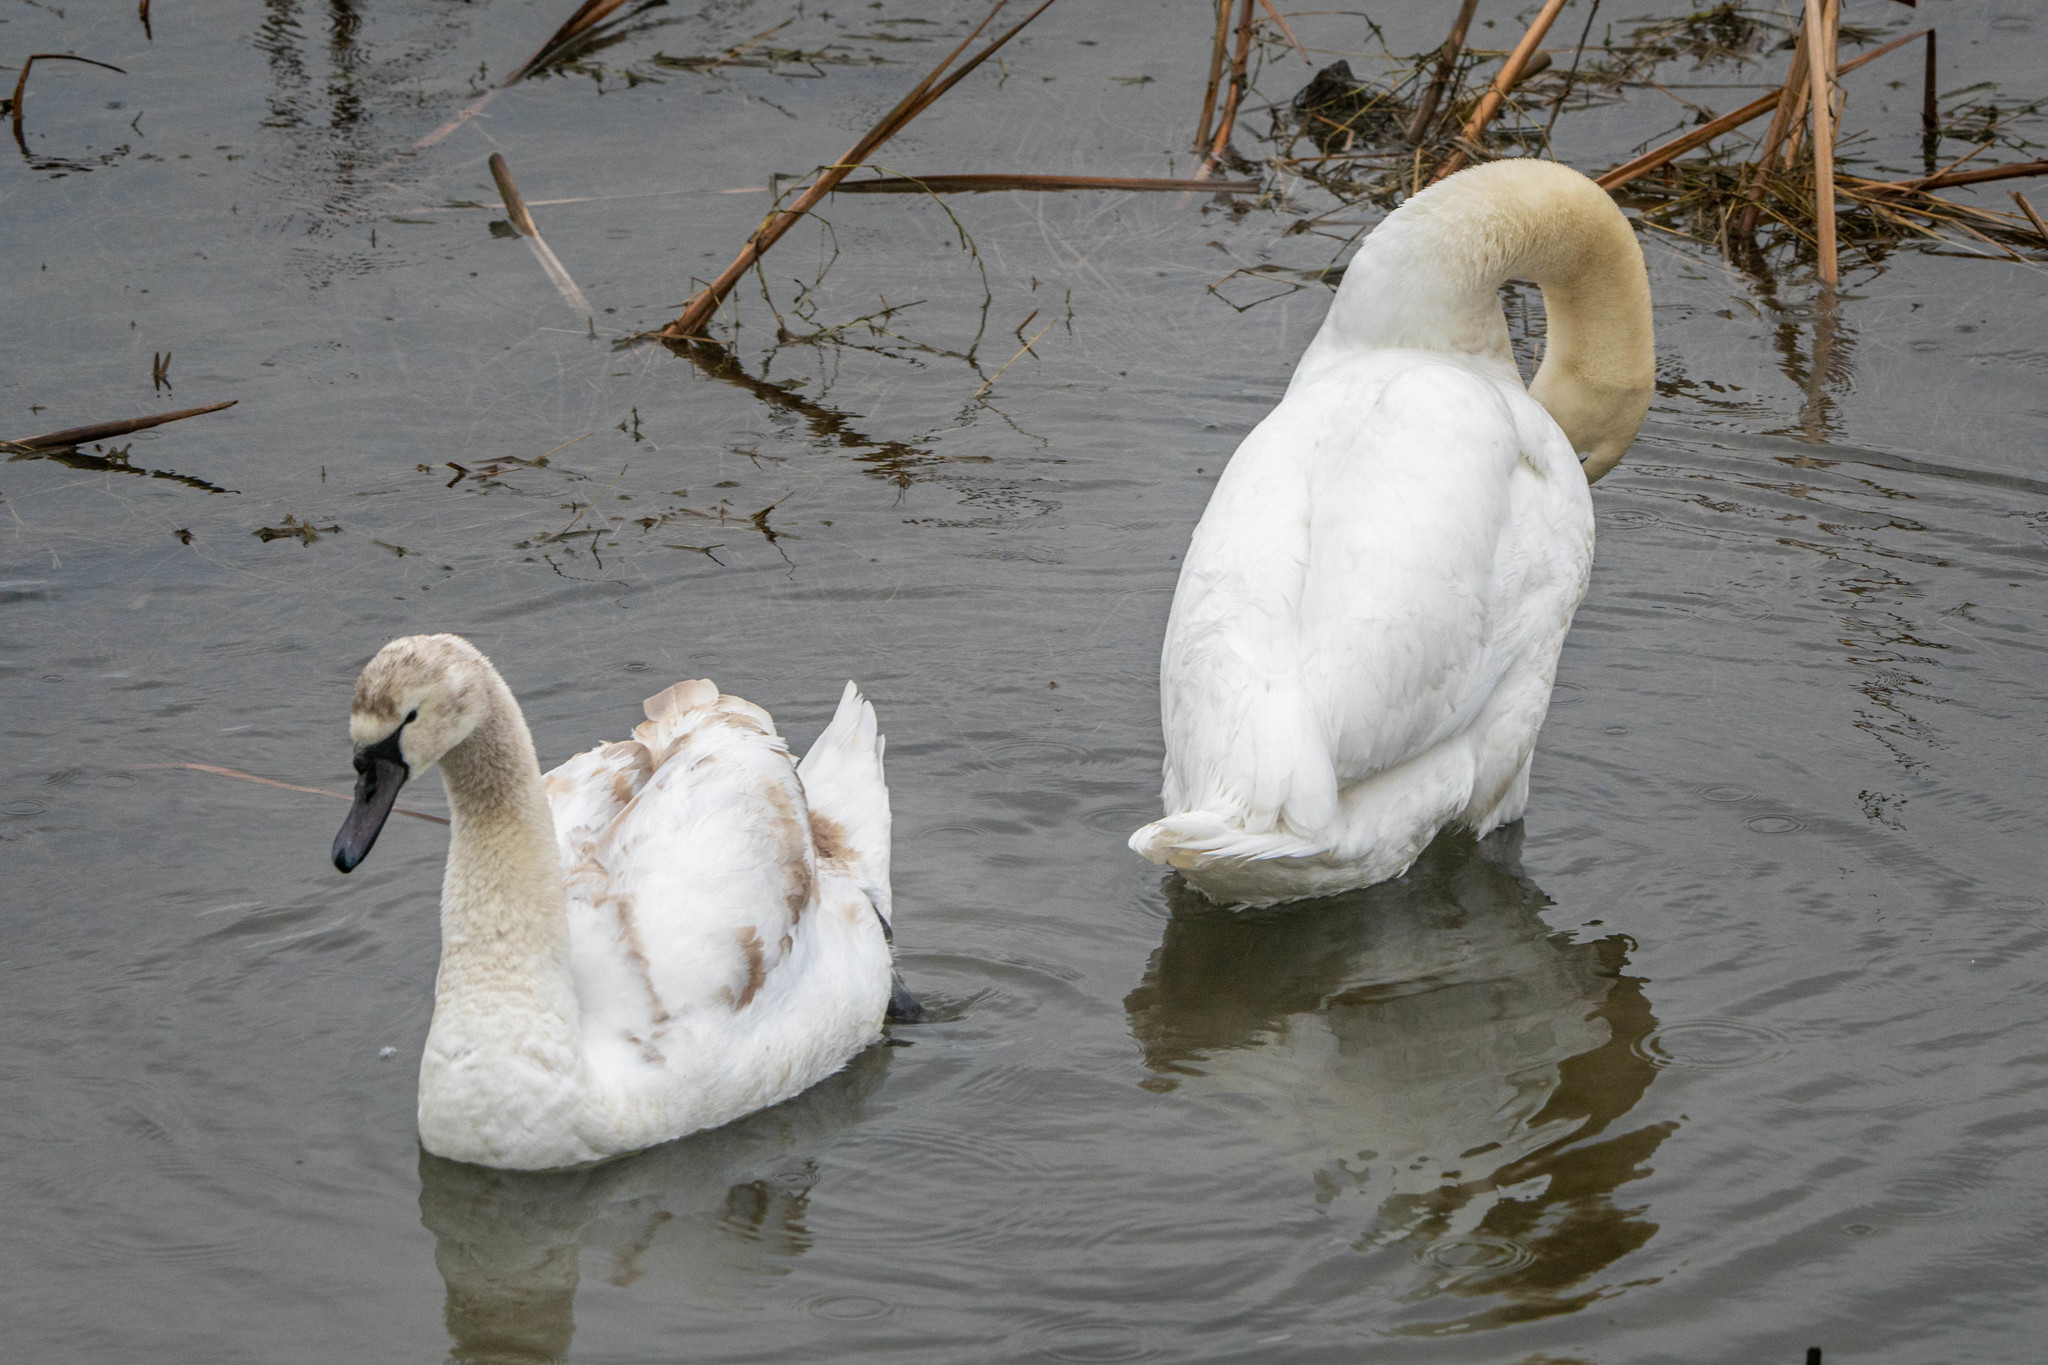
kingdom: Animalia
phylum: Chordata
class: Aves
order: Anseriformes
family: Anatidae
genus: Cygnus
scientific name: Cygnus olor
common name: Mute swan
